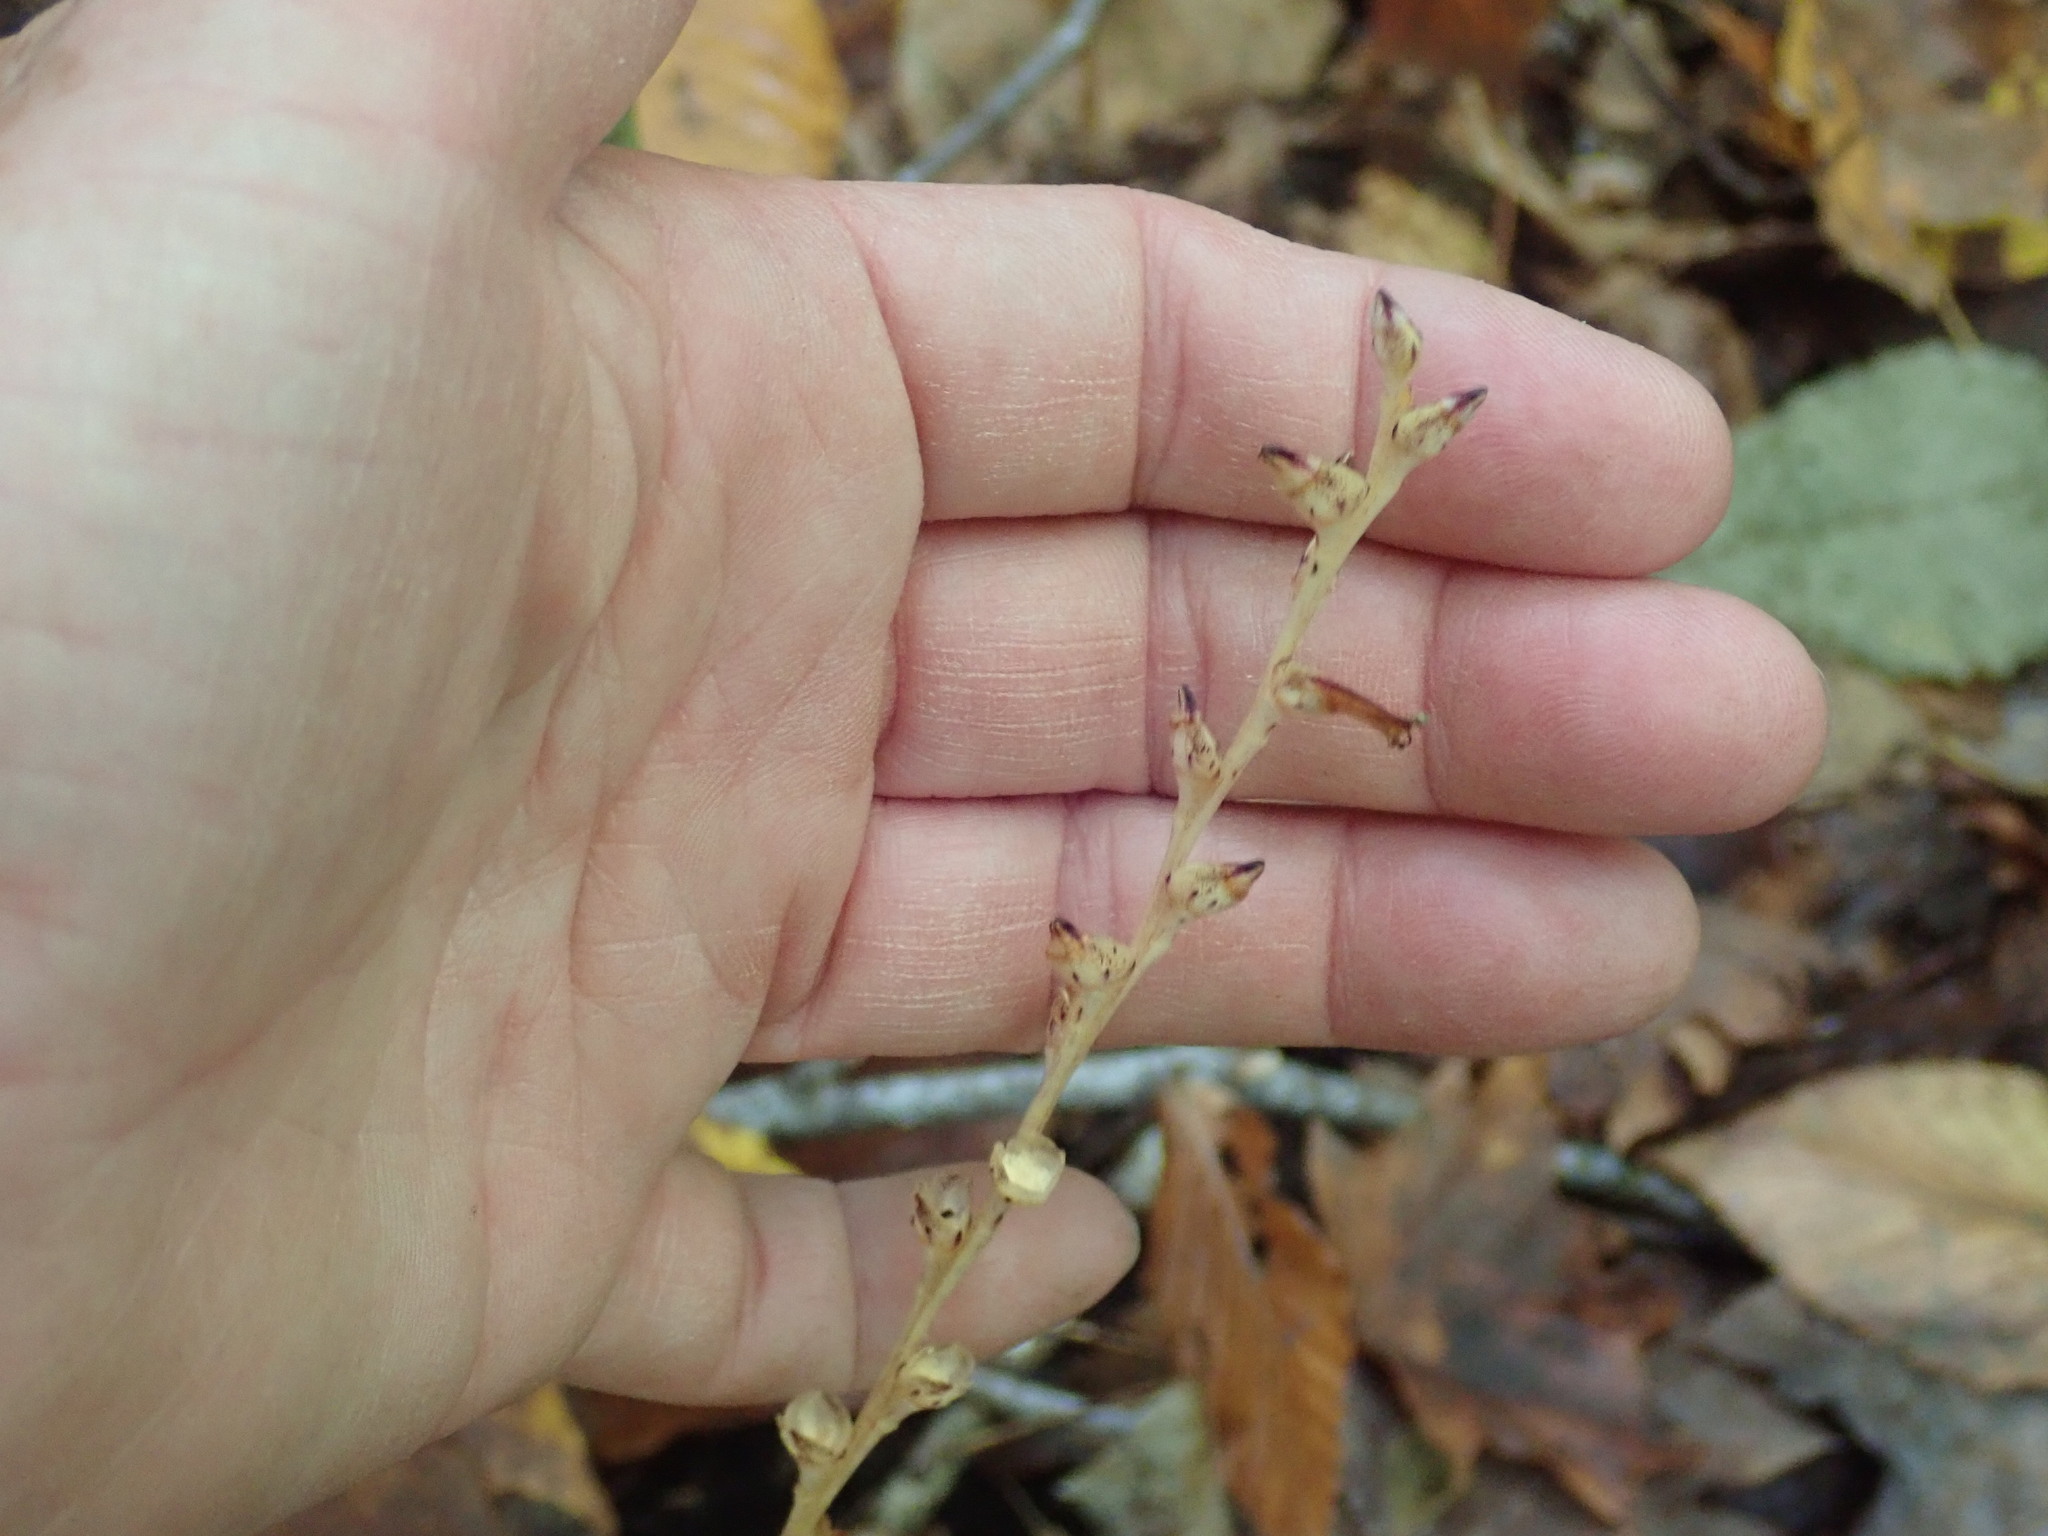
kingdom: Plantae
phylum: Tracheophyta
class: Magnoliopsida
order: Lamiales
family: Orobanchaceae
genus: Epifagus
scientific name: Epifagus virginiana
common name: Beechdrops
